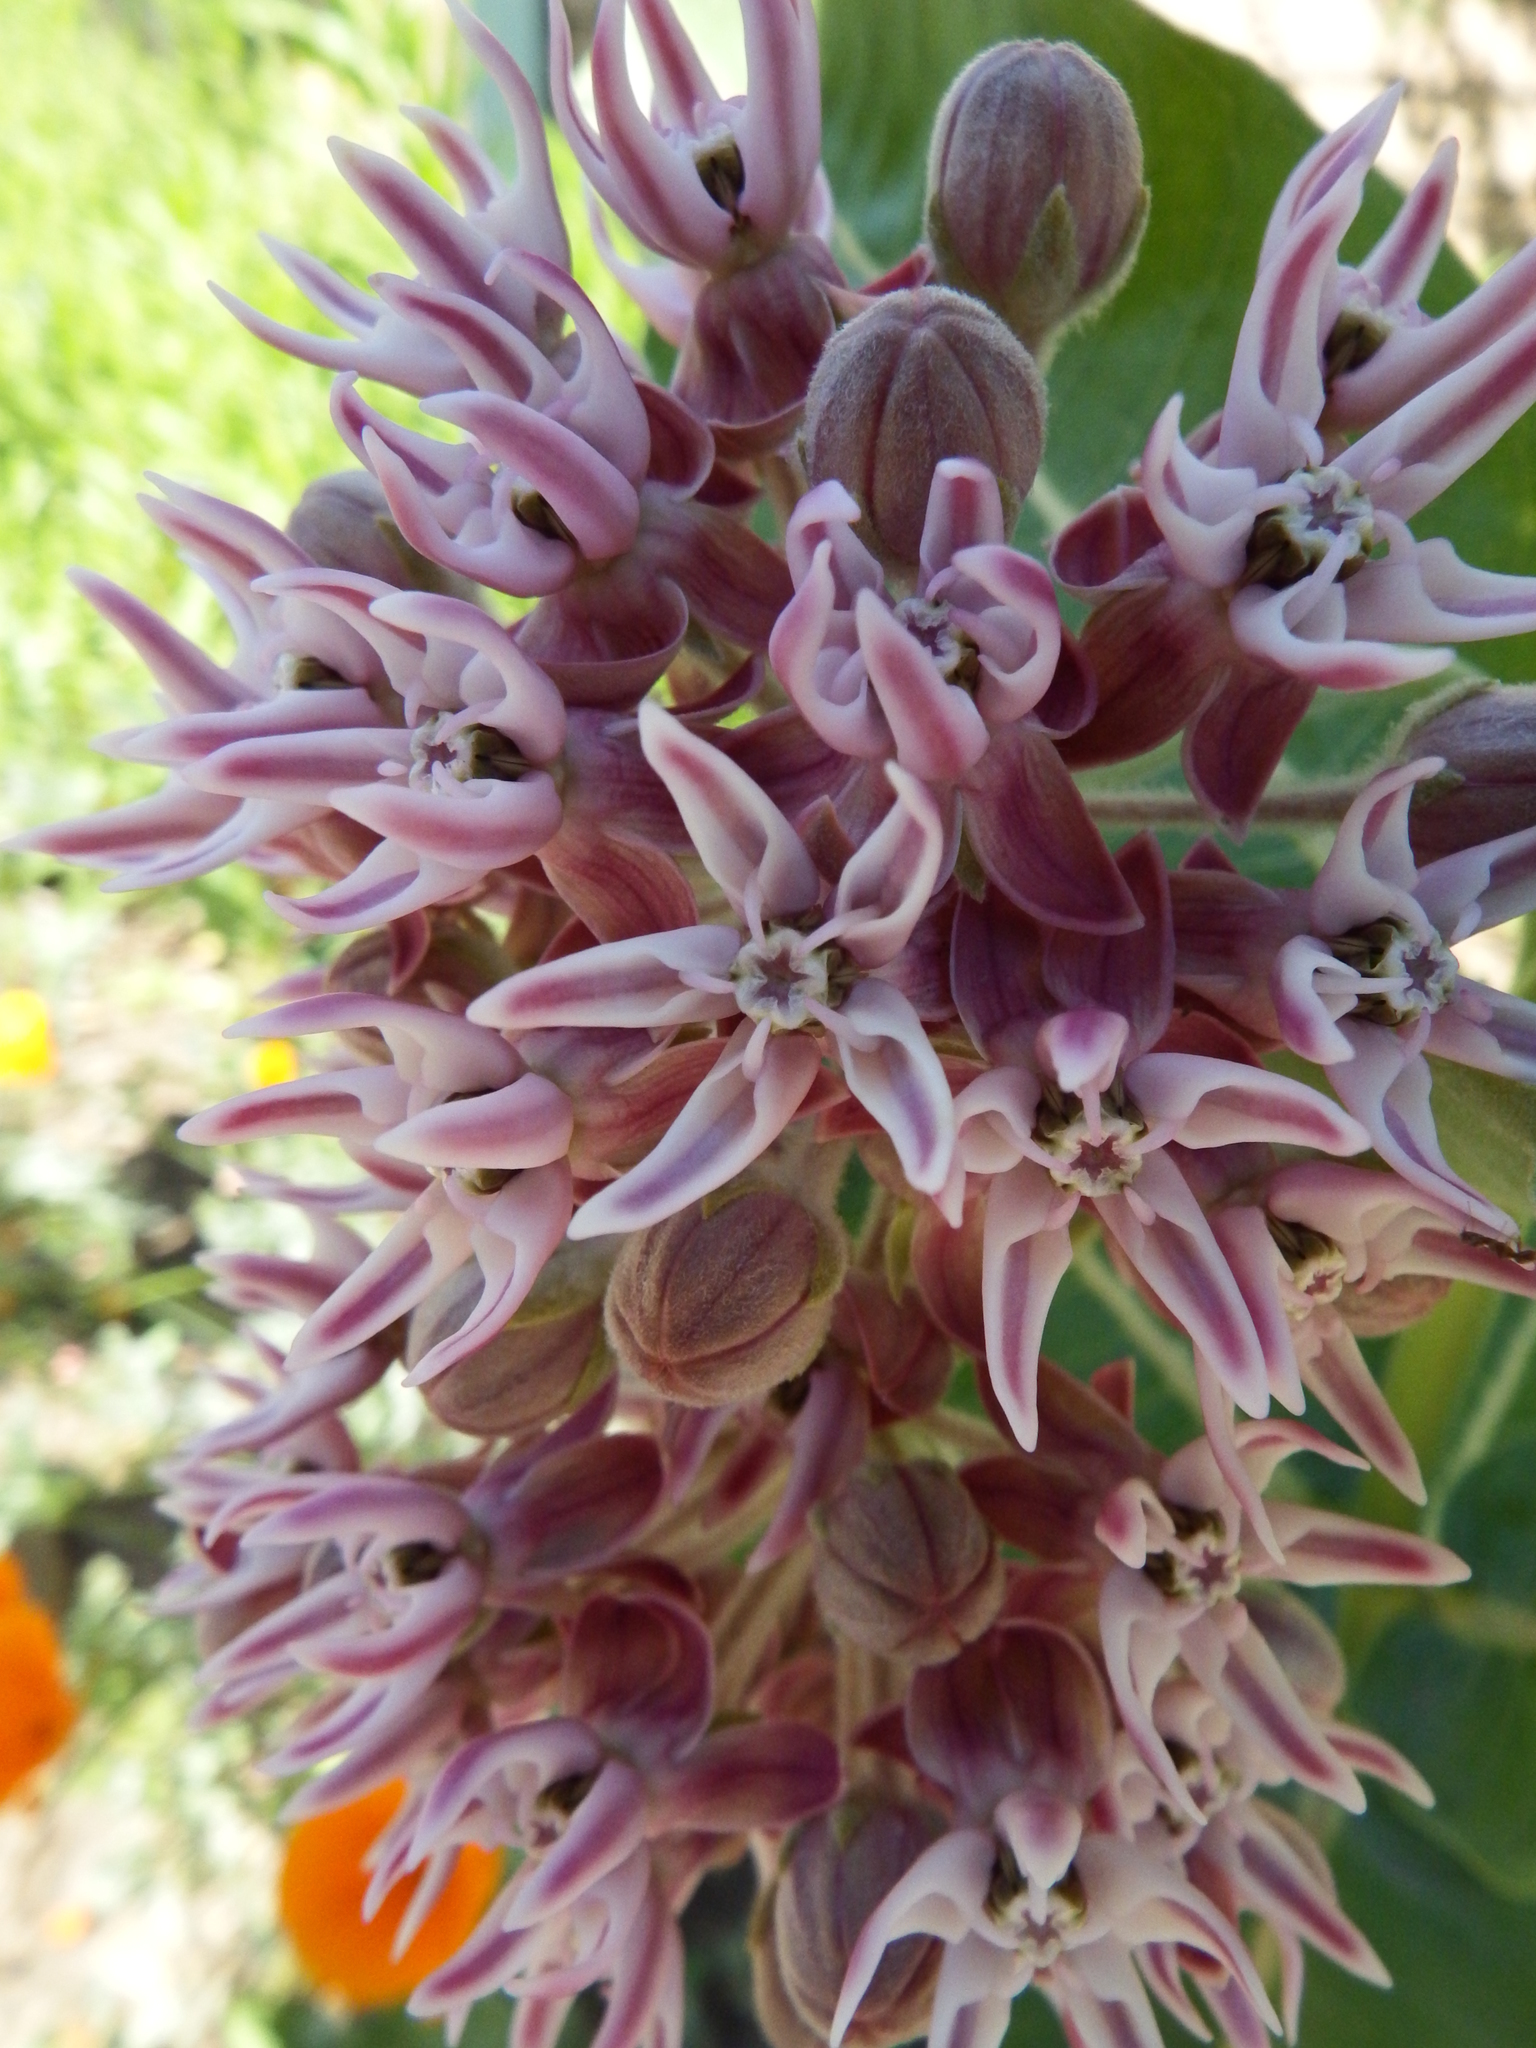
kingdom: Plantae
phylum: Tracheophyta
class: Magnoliopsida
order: Gentianales
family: Apocynaceae
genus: Asclepias
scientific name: Asclepias speciosa
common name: Showy milkweed
